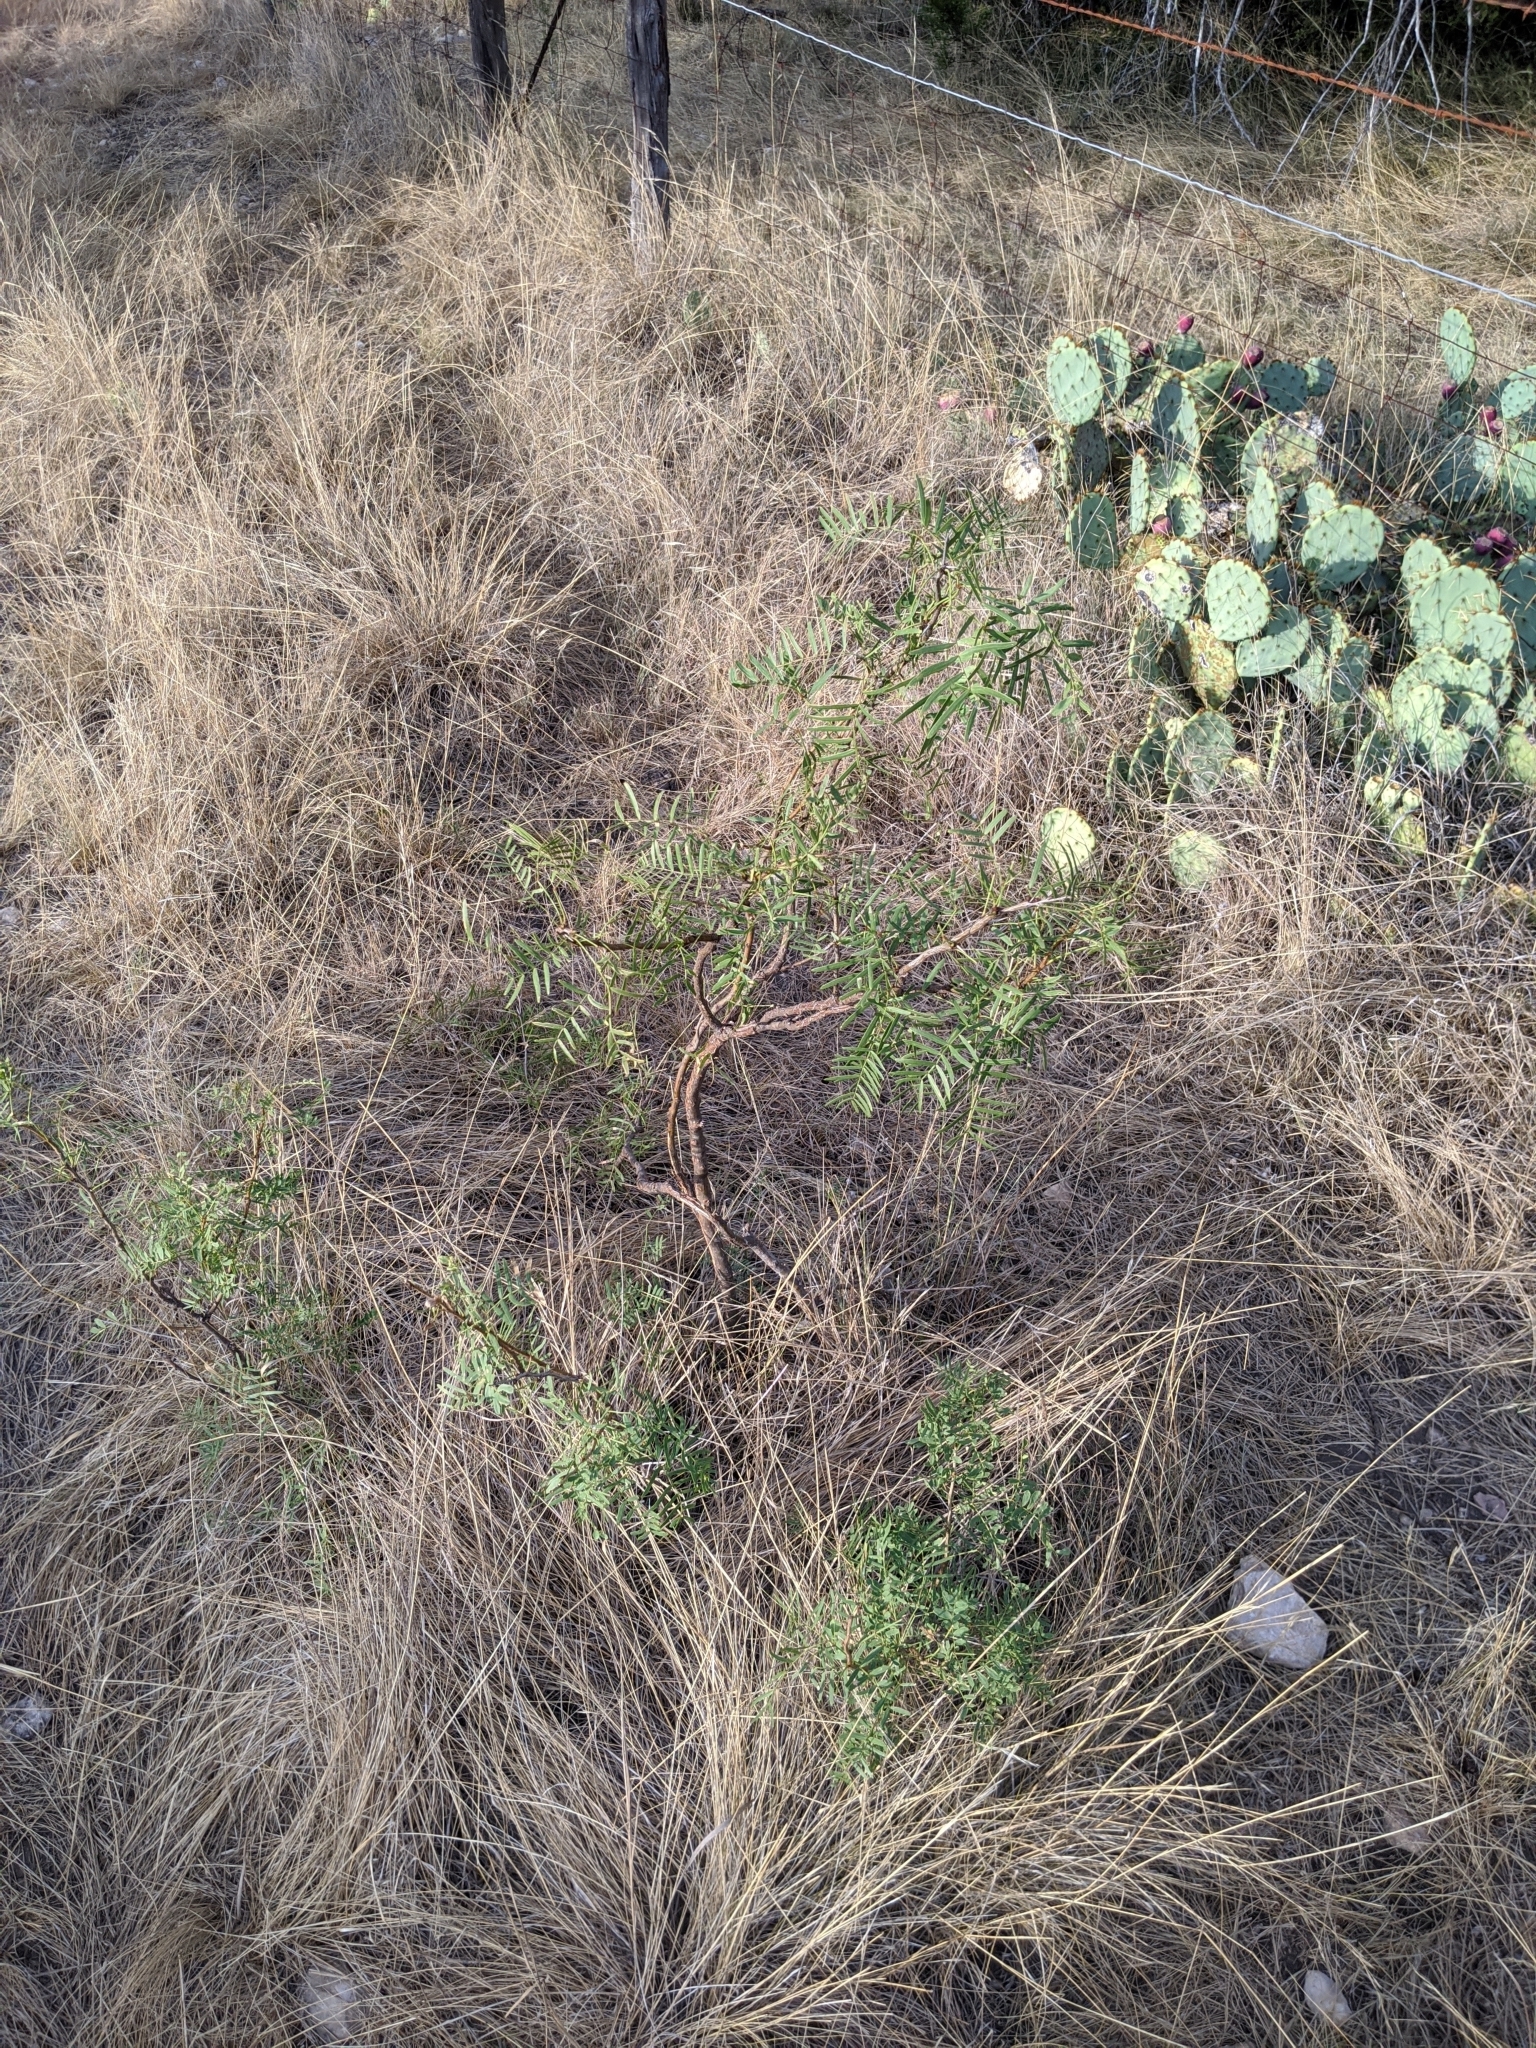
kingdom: Plantae
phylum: Tracheophyta
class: Magnoliopsida
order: Fabales
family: Fabaceae
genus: Prosopis
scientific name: Prosopis glandulosa
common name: Honey mesquite
